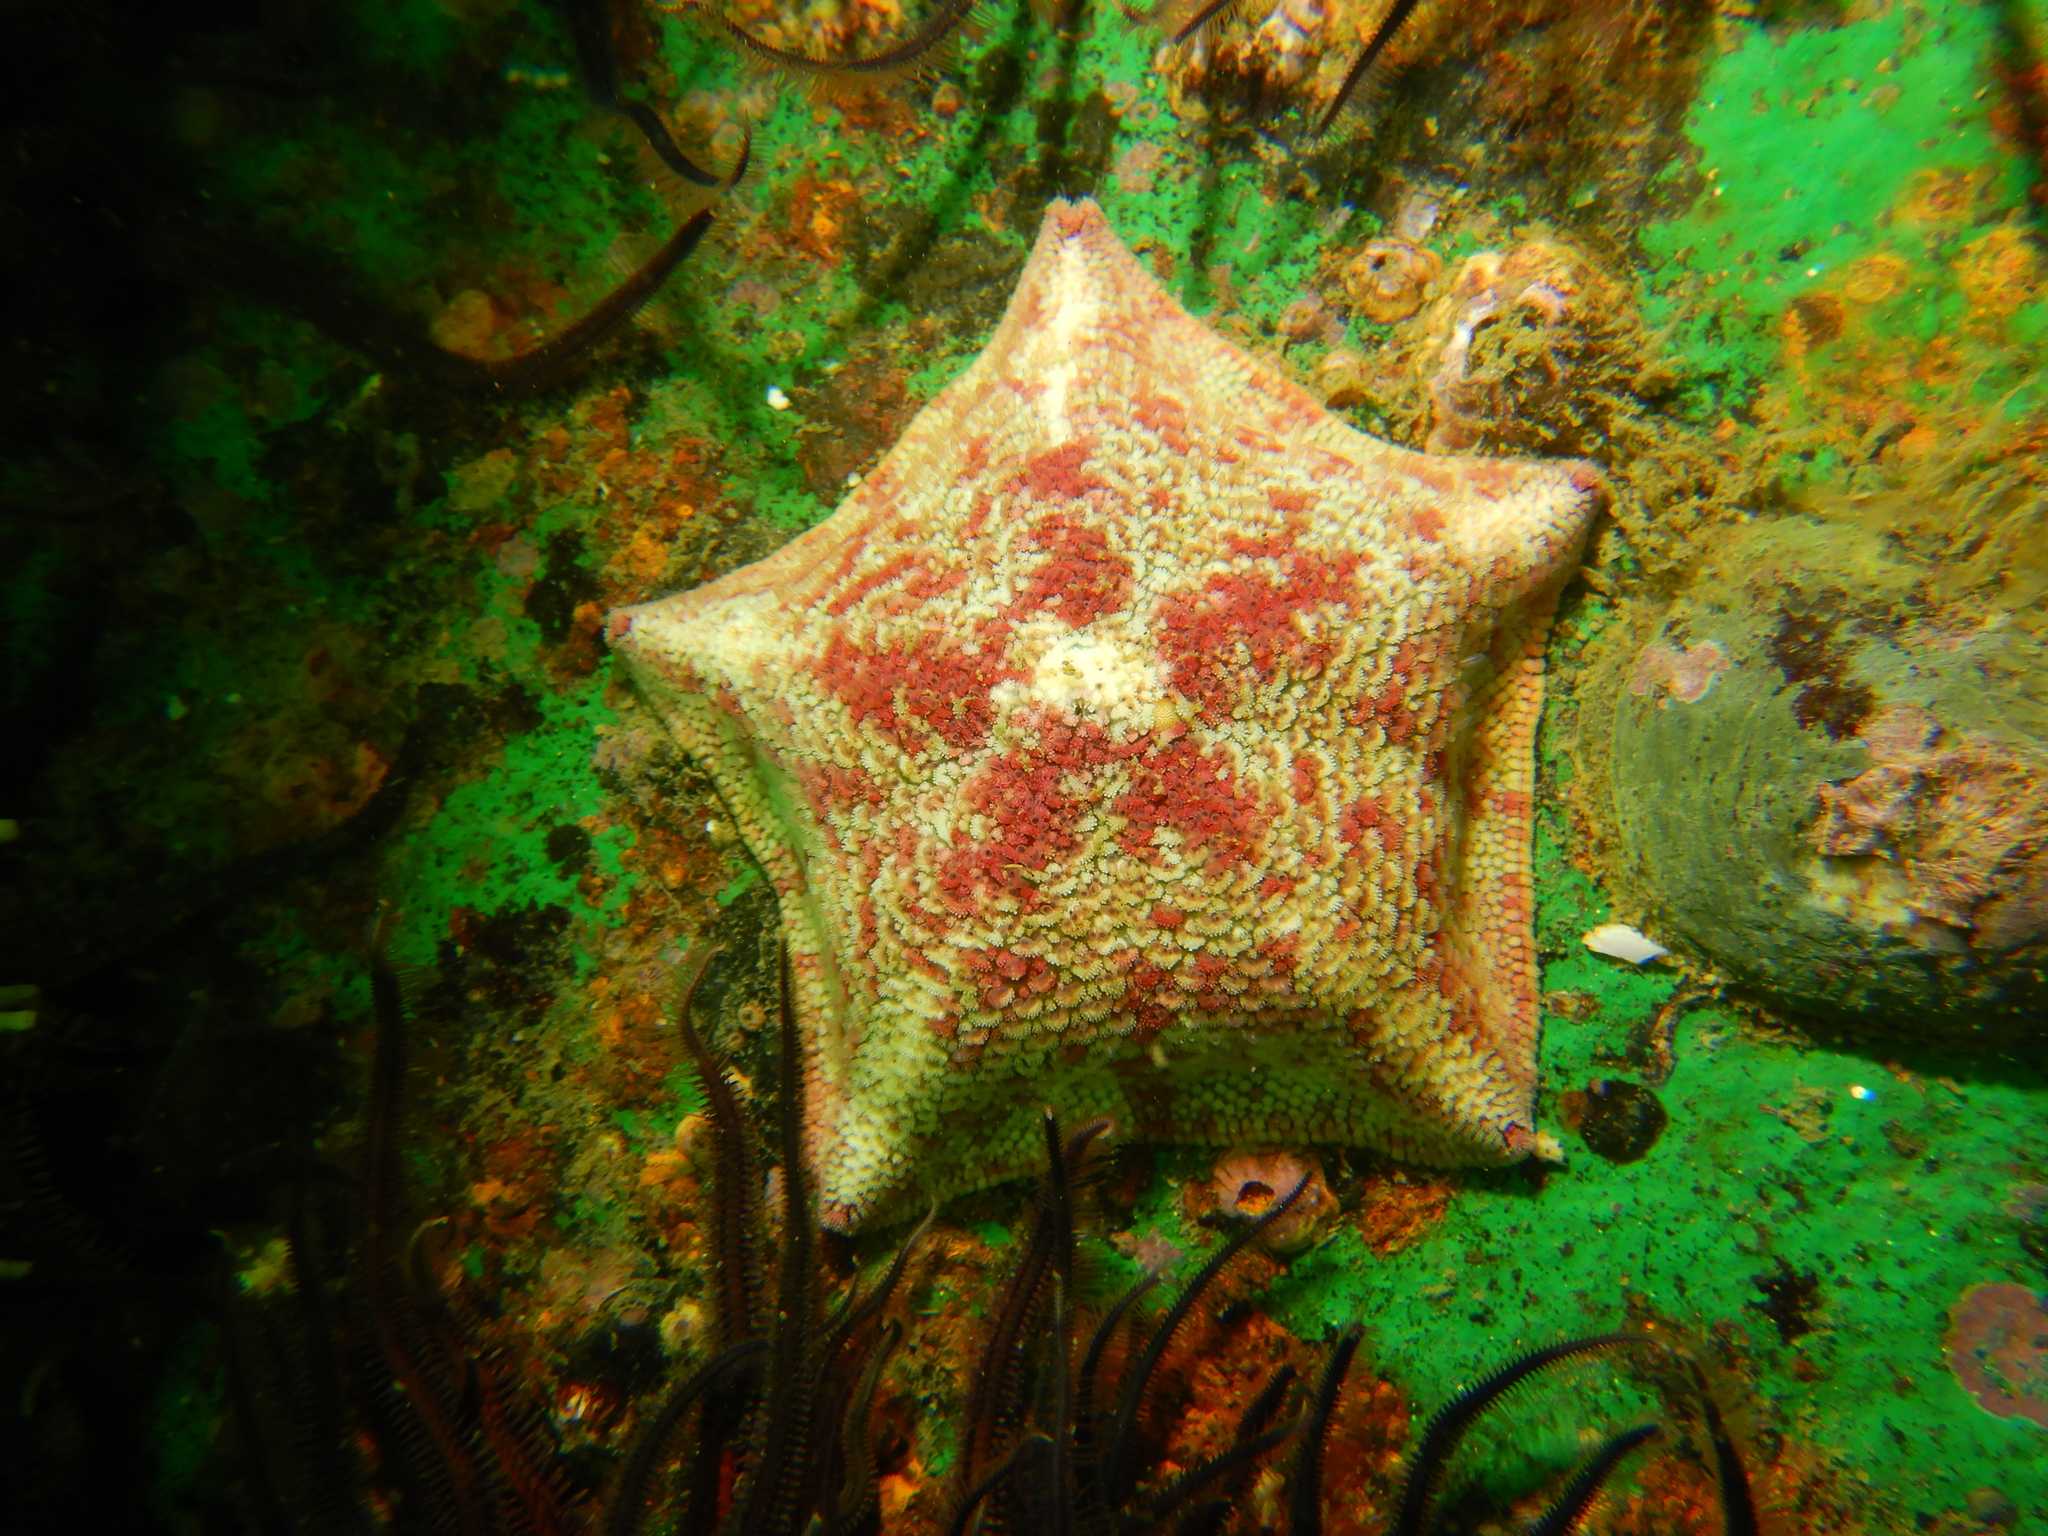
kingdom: Animalia
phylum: Echinodermata
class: Asteroidea
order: Valvatida
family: Asterinidae
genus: Patiria
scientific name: Patiria chilensis
